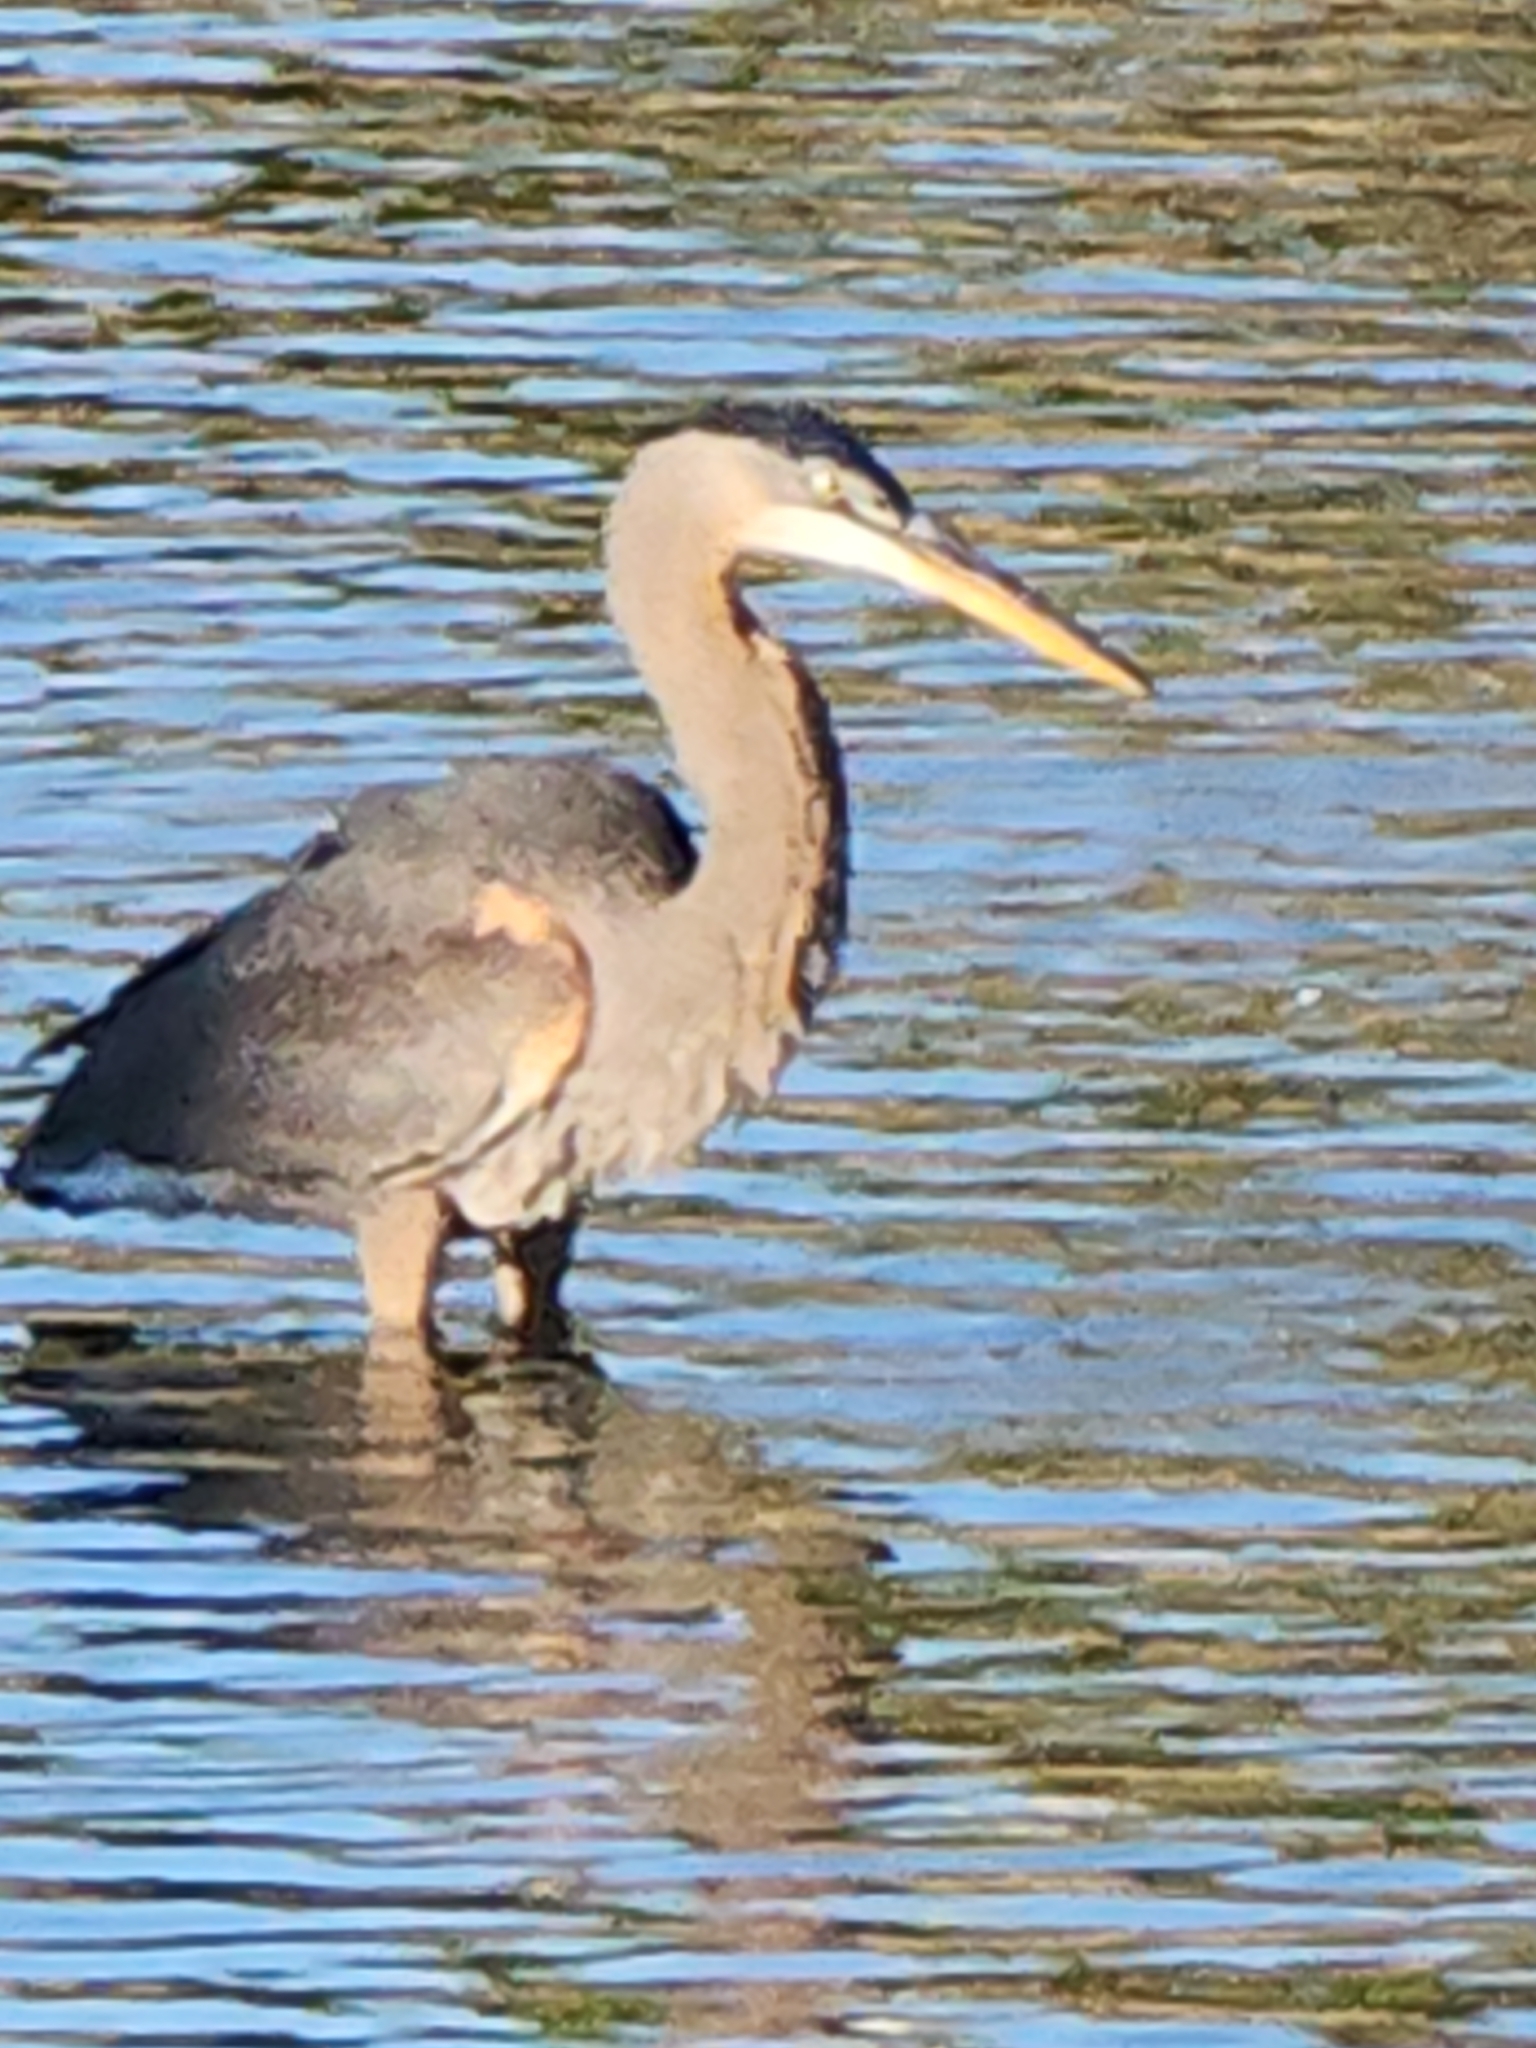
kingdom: Animalia
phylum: Chordata
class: Aves
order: Pelecaniformes
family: Ardeidae
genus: Ardea
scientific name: Ardea herodias
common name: Great blue heron
